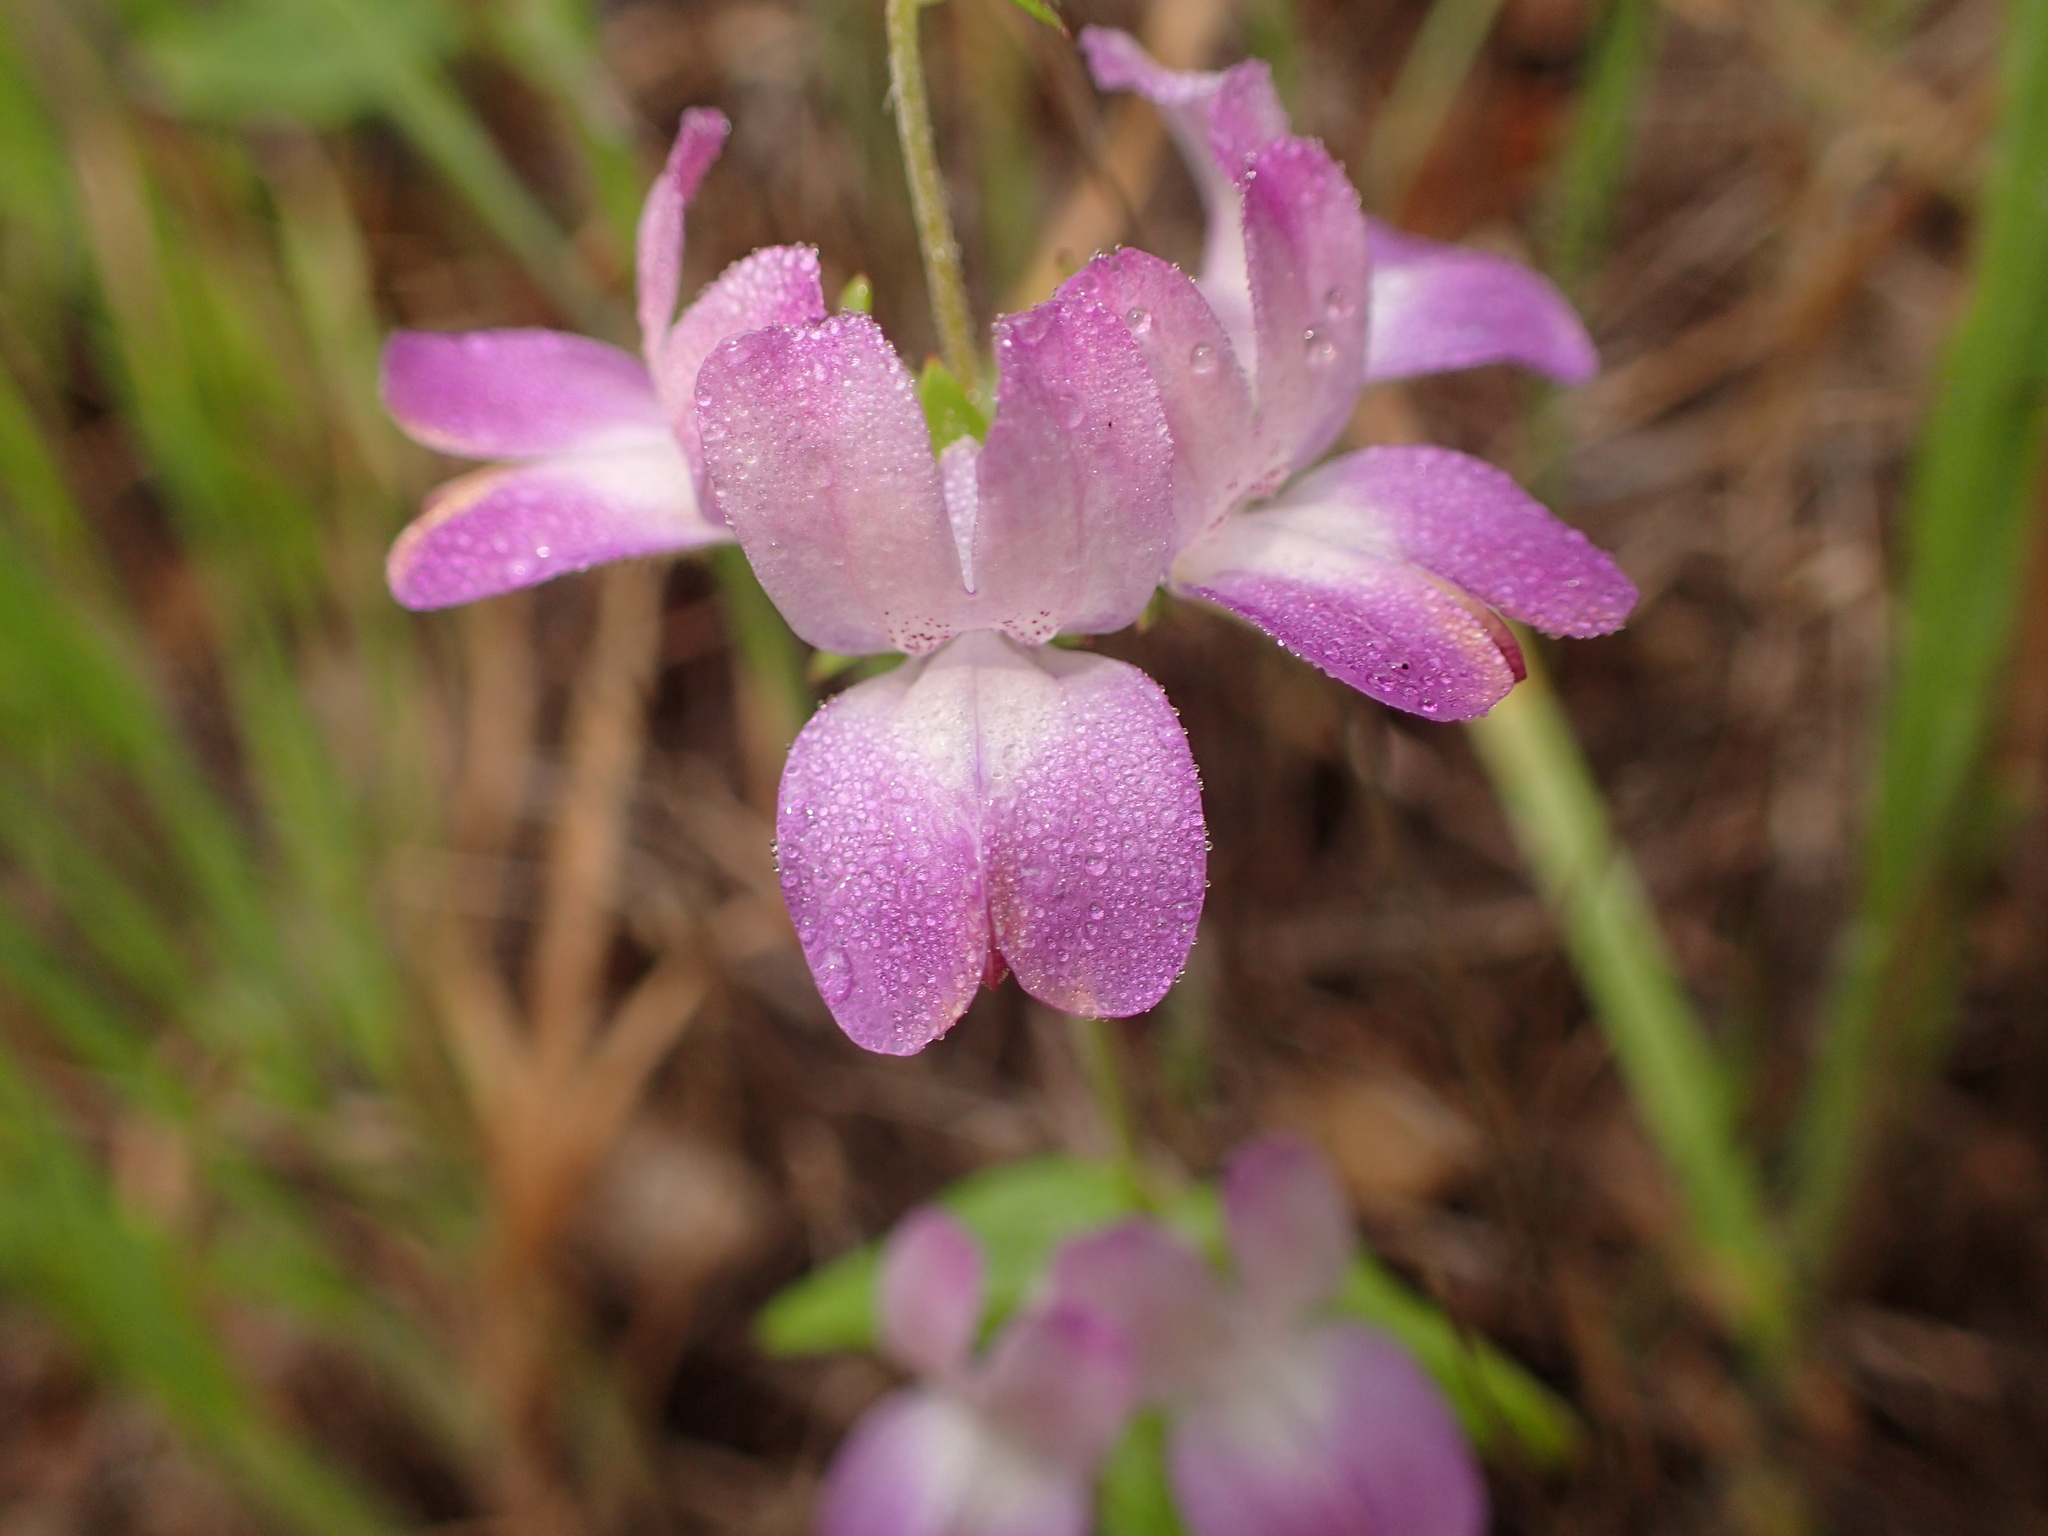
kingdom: Plantae
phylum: Tracheophyta
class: Magnoliopsida
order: Lamiales
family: Plantaginaceae
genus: Collinsia
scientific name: Collinsia heterophylla
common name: Chinese-houses
